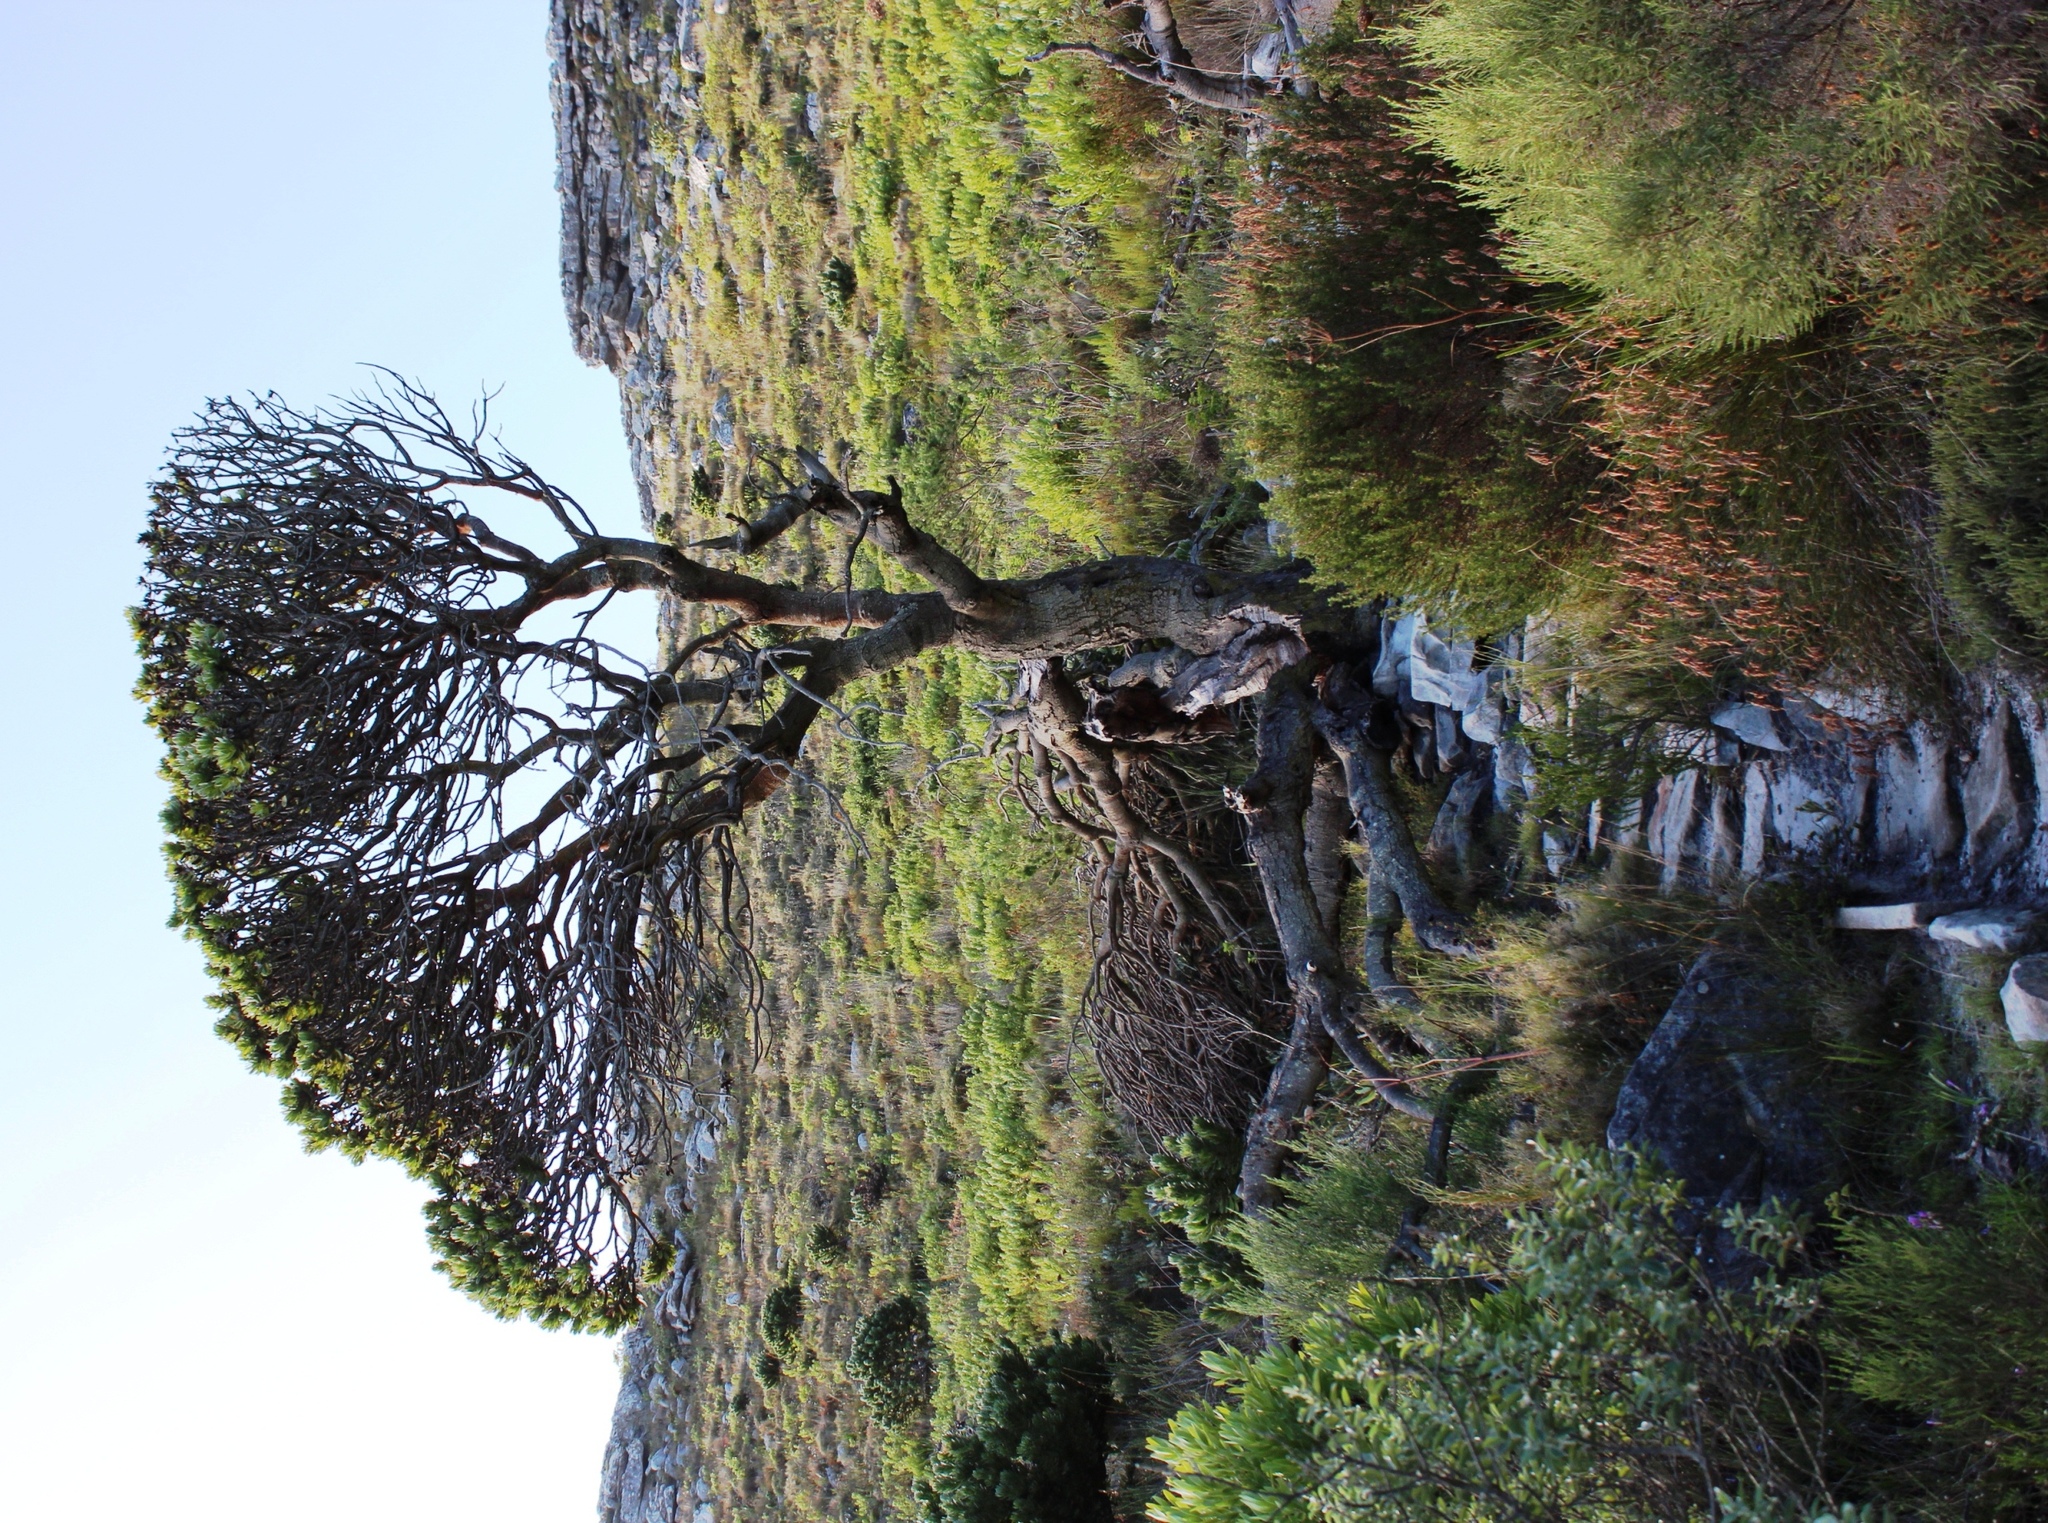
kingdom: Plantae
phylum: Tracheophyta
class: Magnoliopsida
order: Proteales
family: Proteaceae
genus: Mimetes
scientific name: Mimetes fimbriifolius
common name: Fringed bottlebrush
